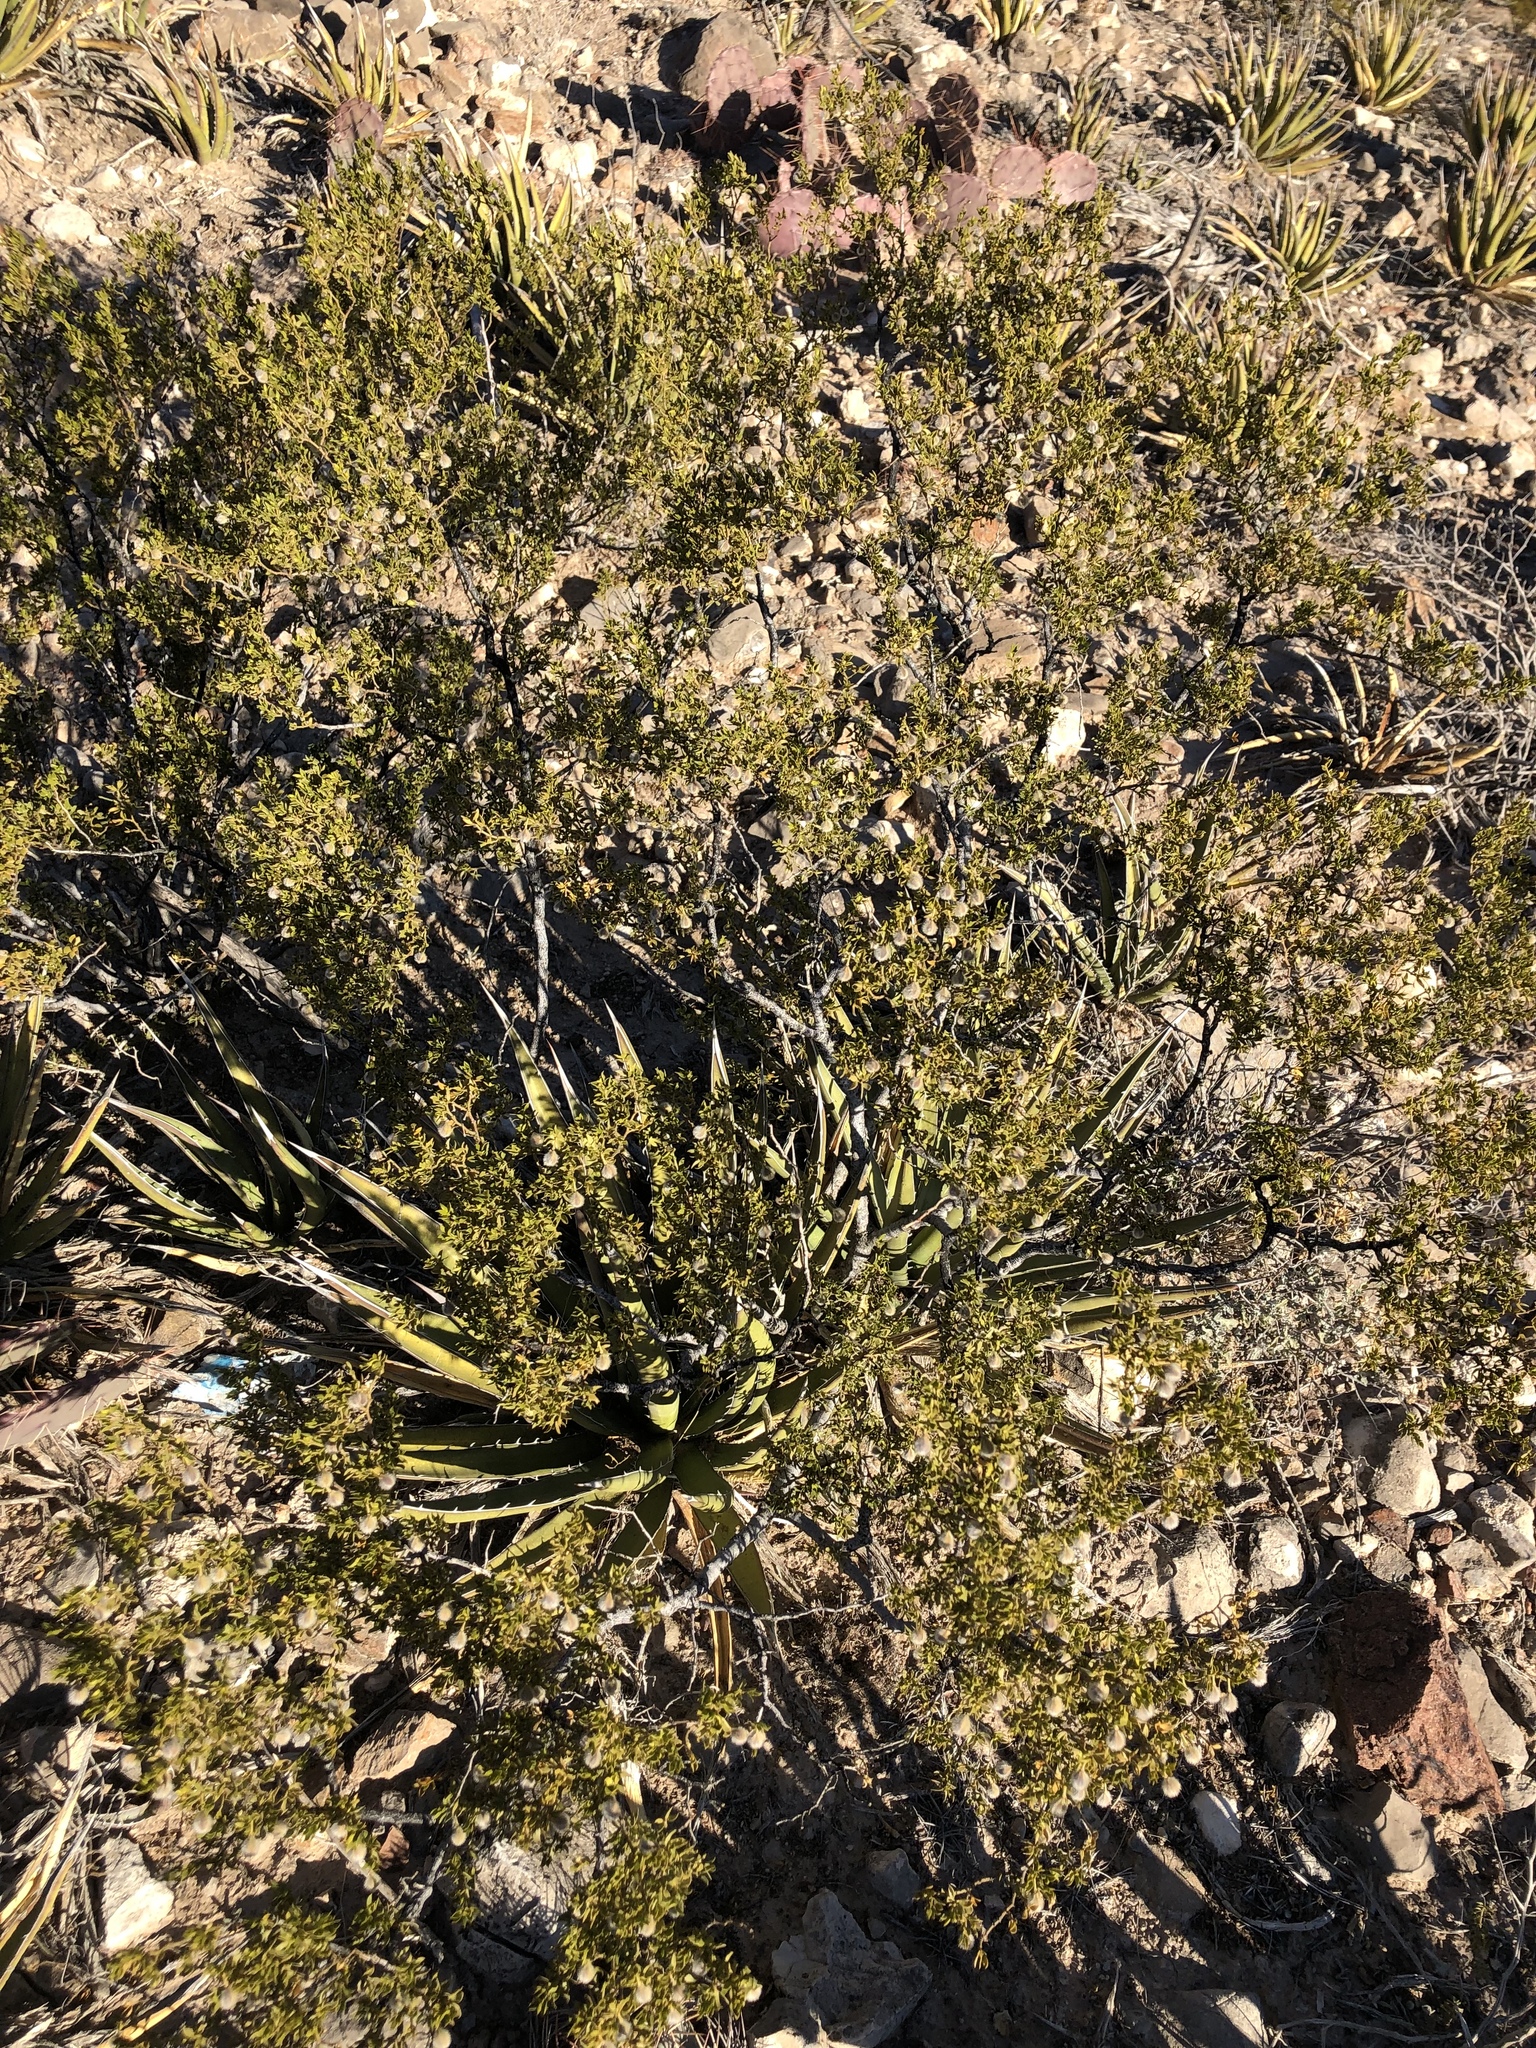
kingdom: Plantae
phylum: Tracheophyta
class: Magnoliopsida
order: Zygophyllales
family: Zygophyllaceae
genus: Larrea
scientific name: Larrea tridentata
